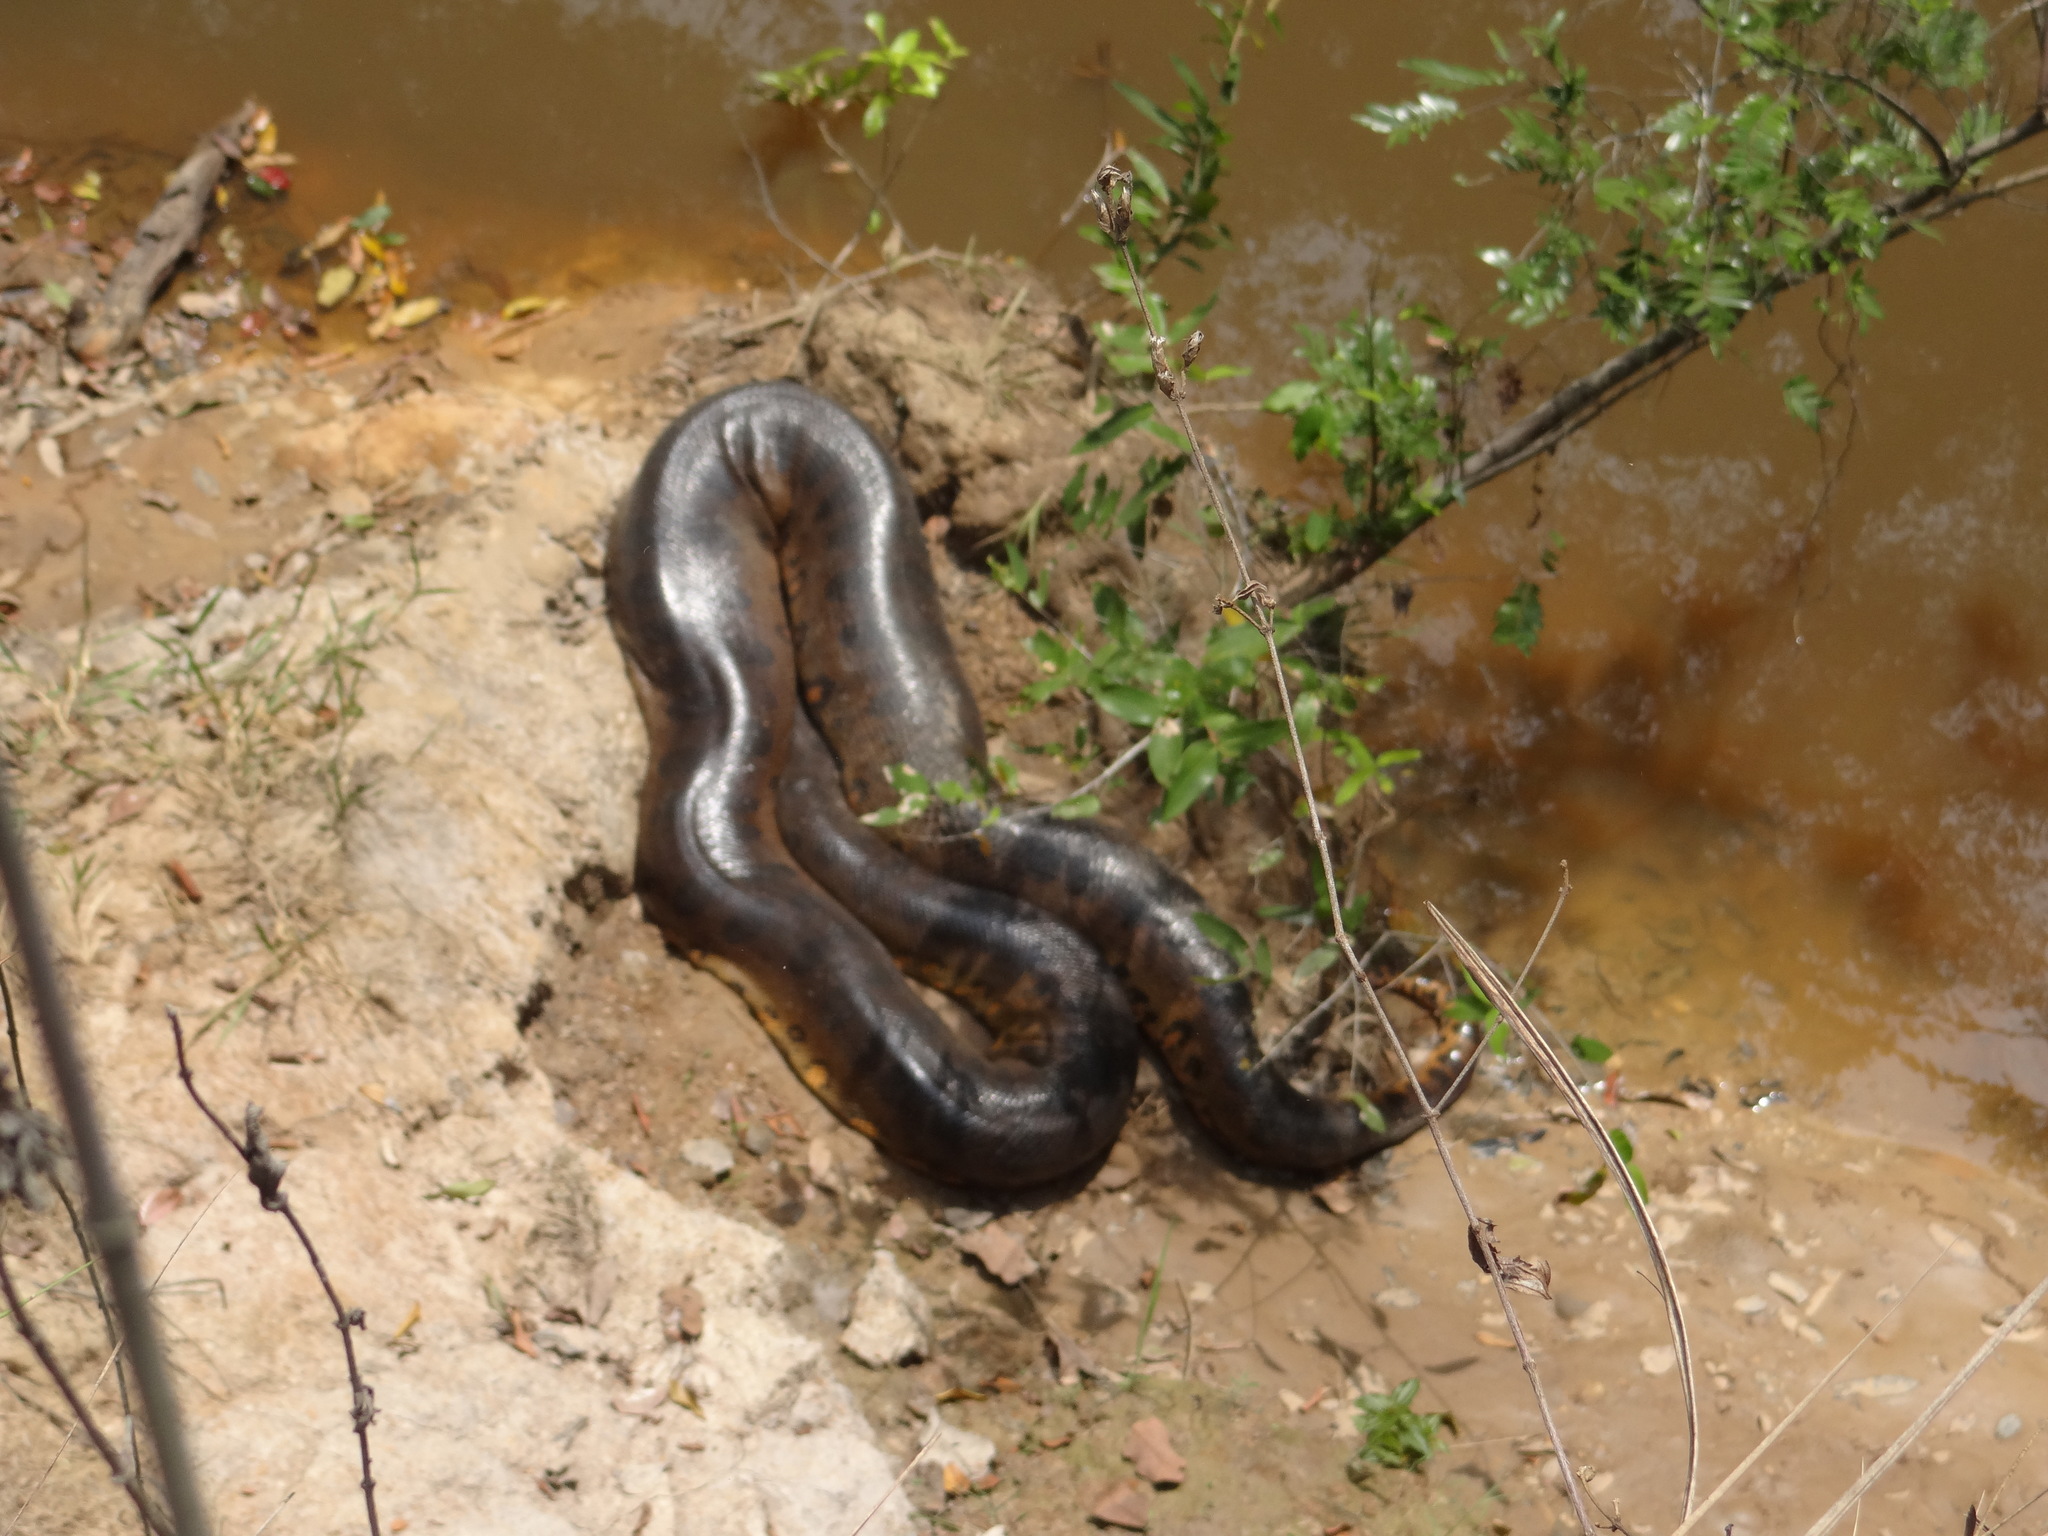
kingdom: Animalia
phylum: Chordata
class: Squamata
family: Boidae
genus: Eunectes
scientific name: Eunectes murinus
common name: Anaconda
